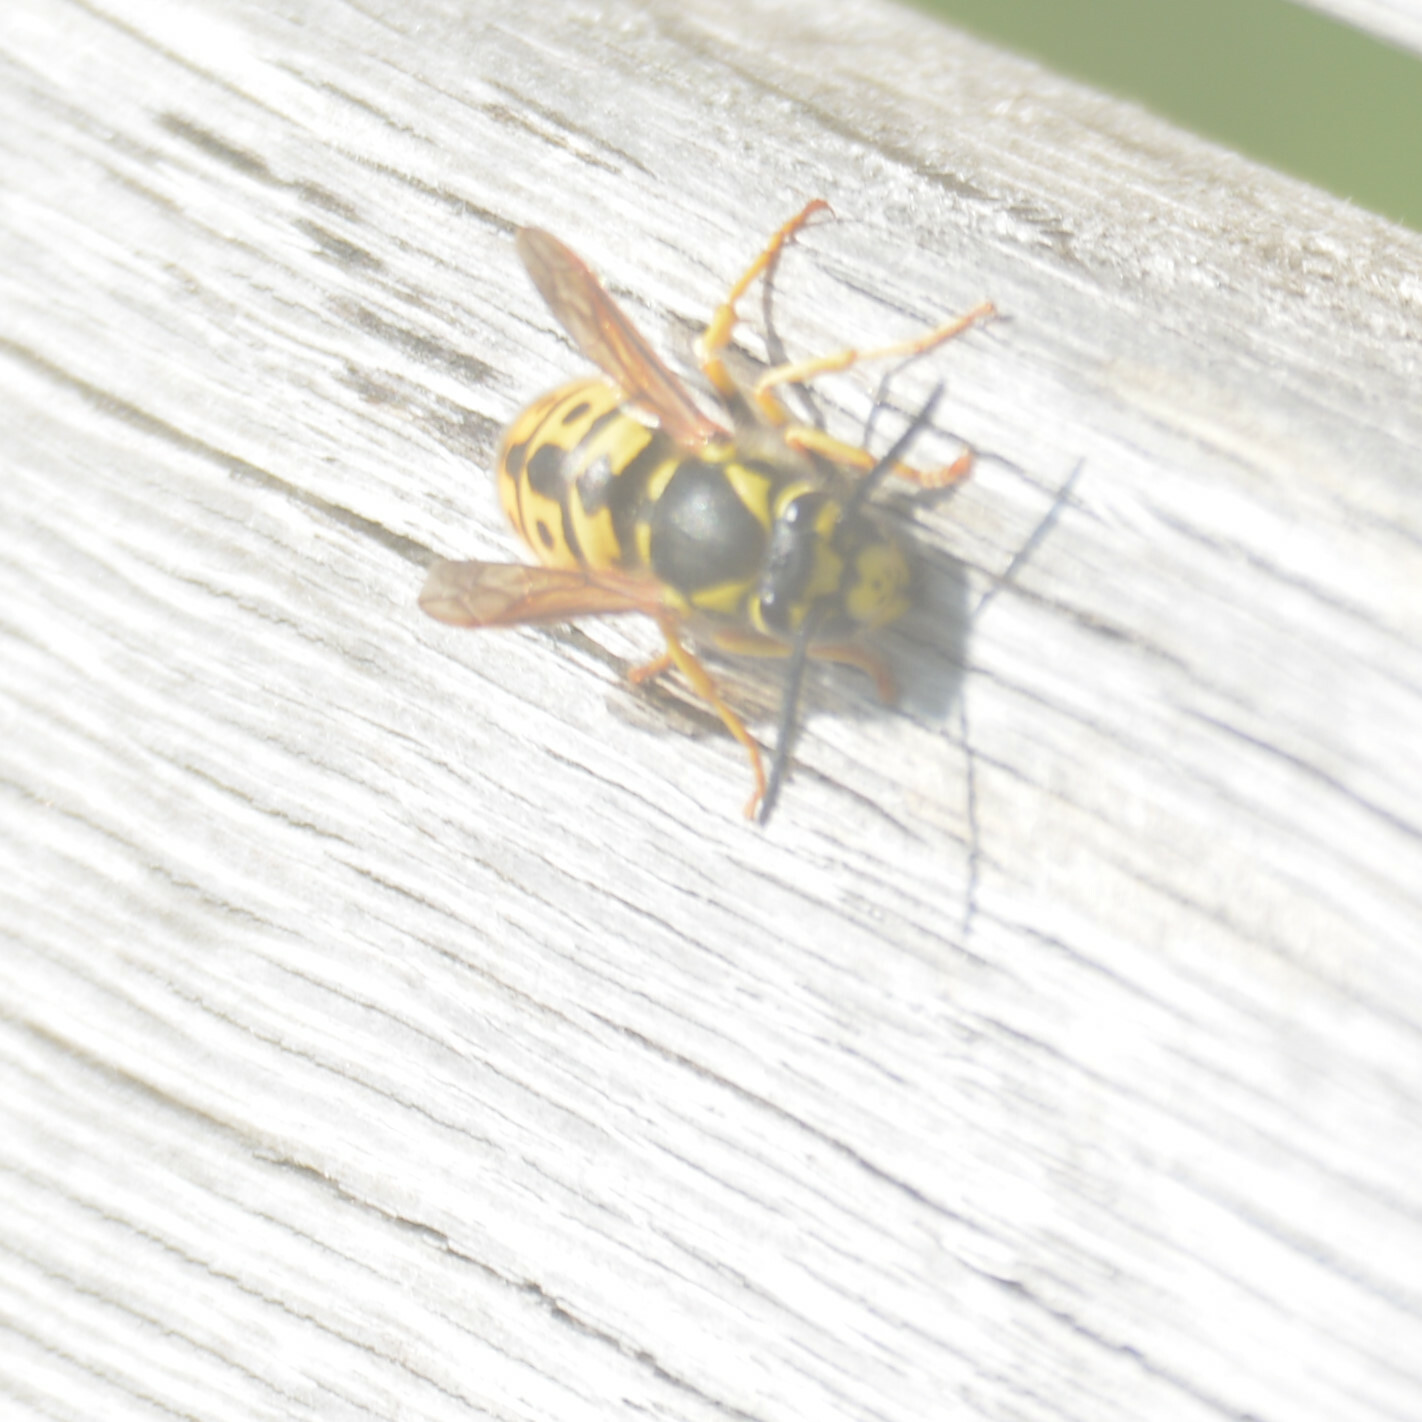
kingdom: Animalia
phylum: Arthropoda
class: Insecta
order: Hymenoptera
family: Vespidae
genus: Vespula
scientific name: Vespula germanica
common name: German wasp
